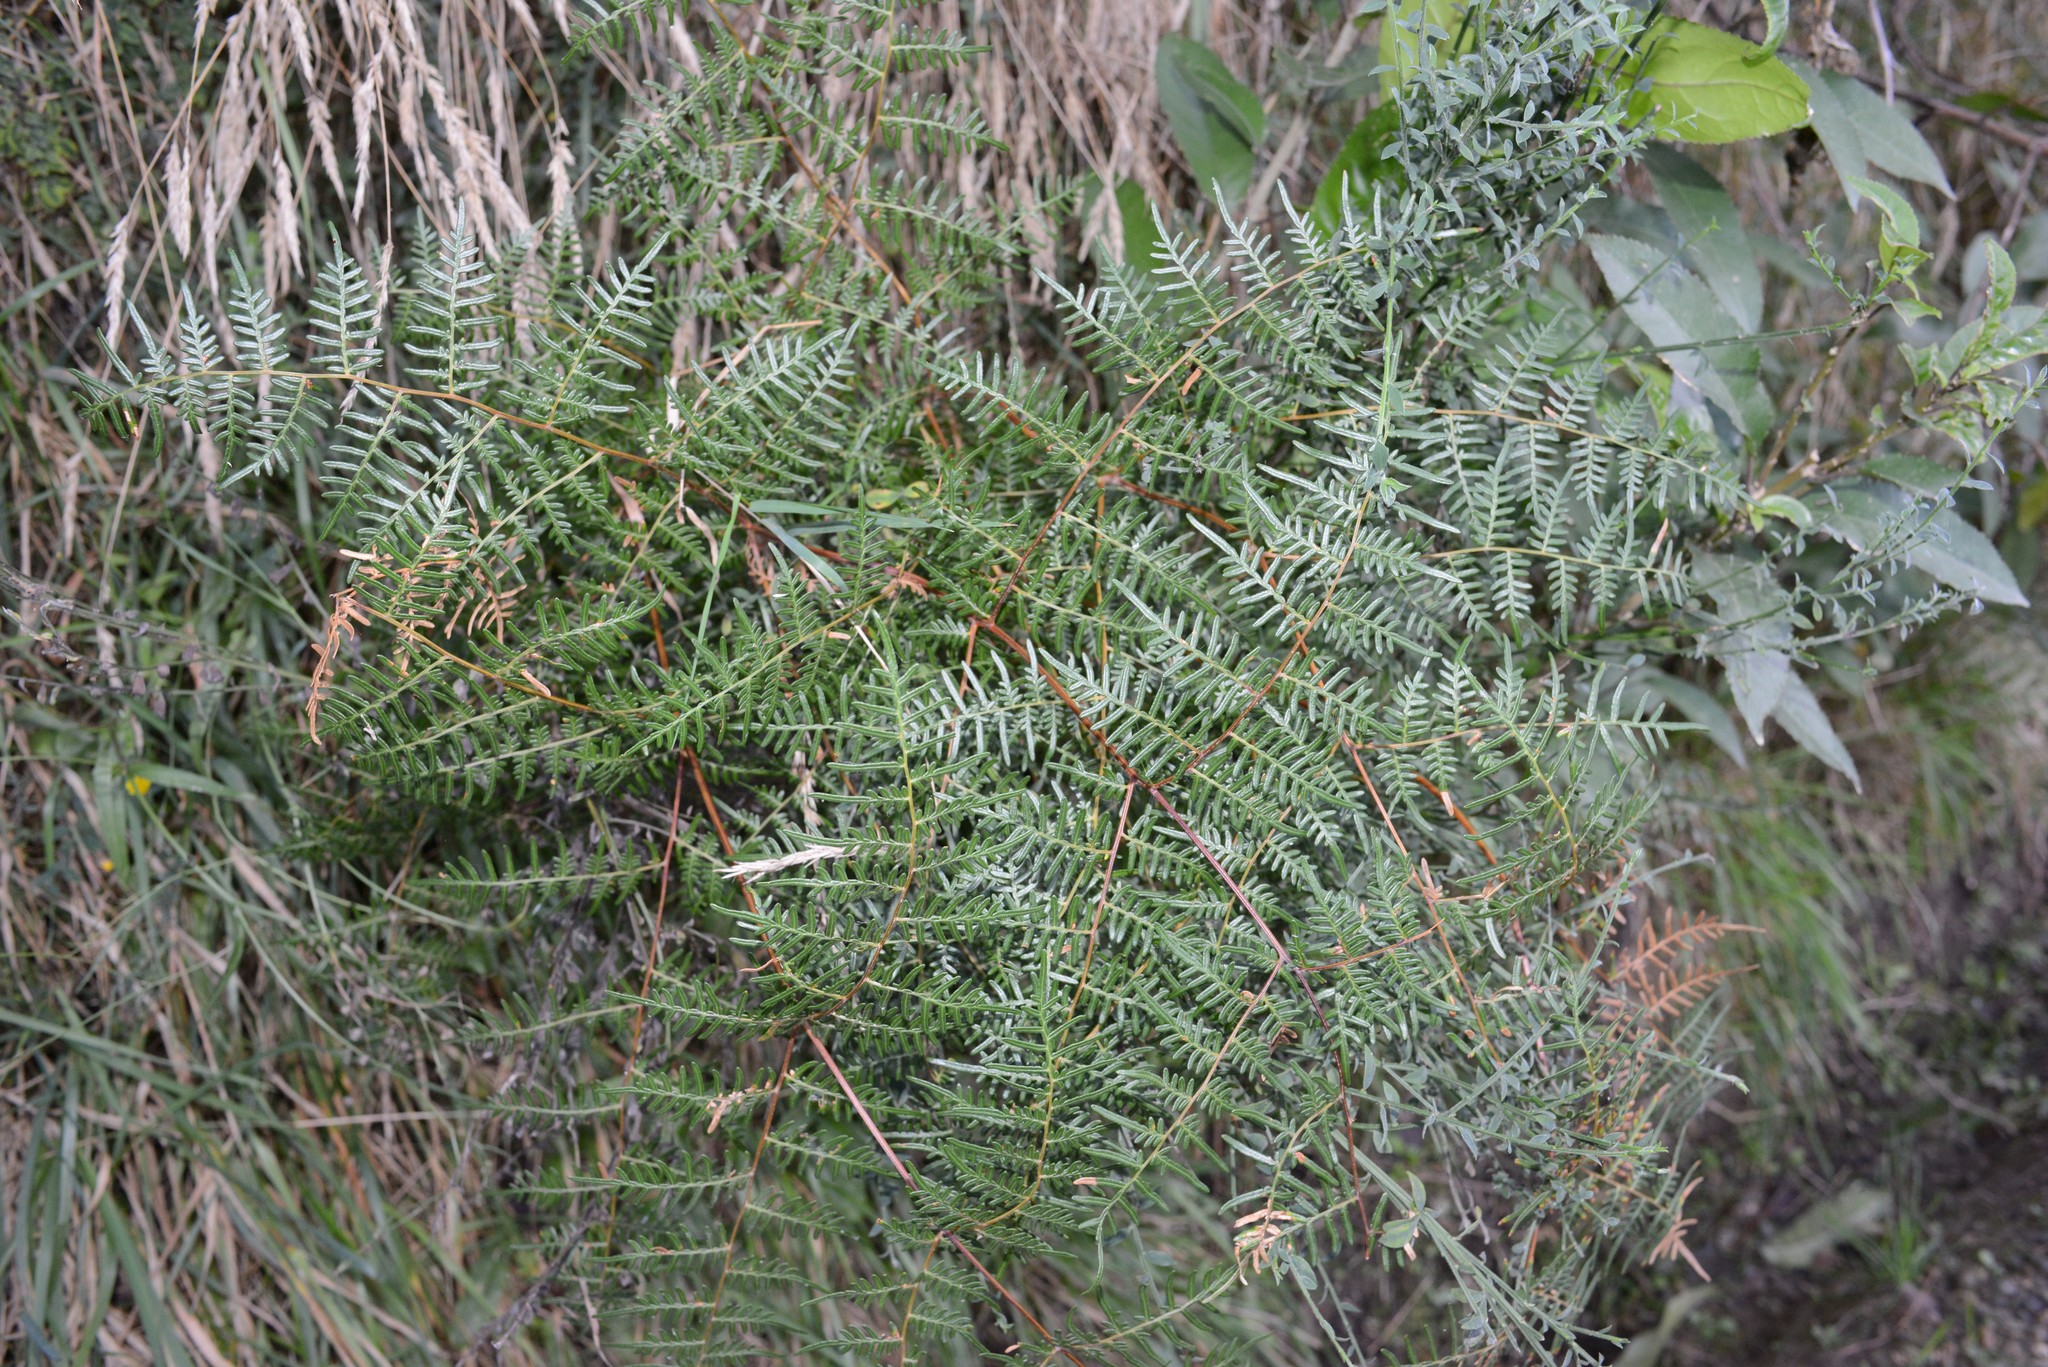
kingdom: Plantae
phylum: Tracheophyta
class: Polypodiopsida
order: Polypodiales
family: Dennstaedtiaceae
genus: Pteridium
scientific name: Pteridium esculentum
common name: Bracken fern
